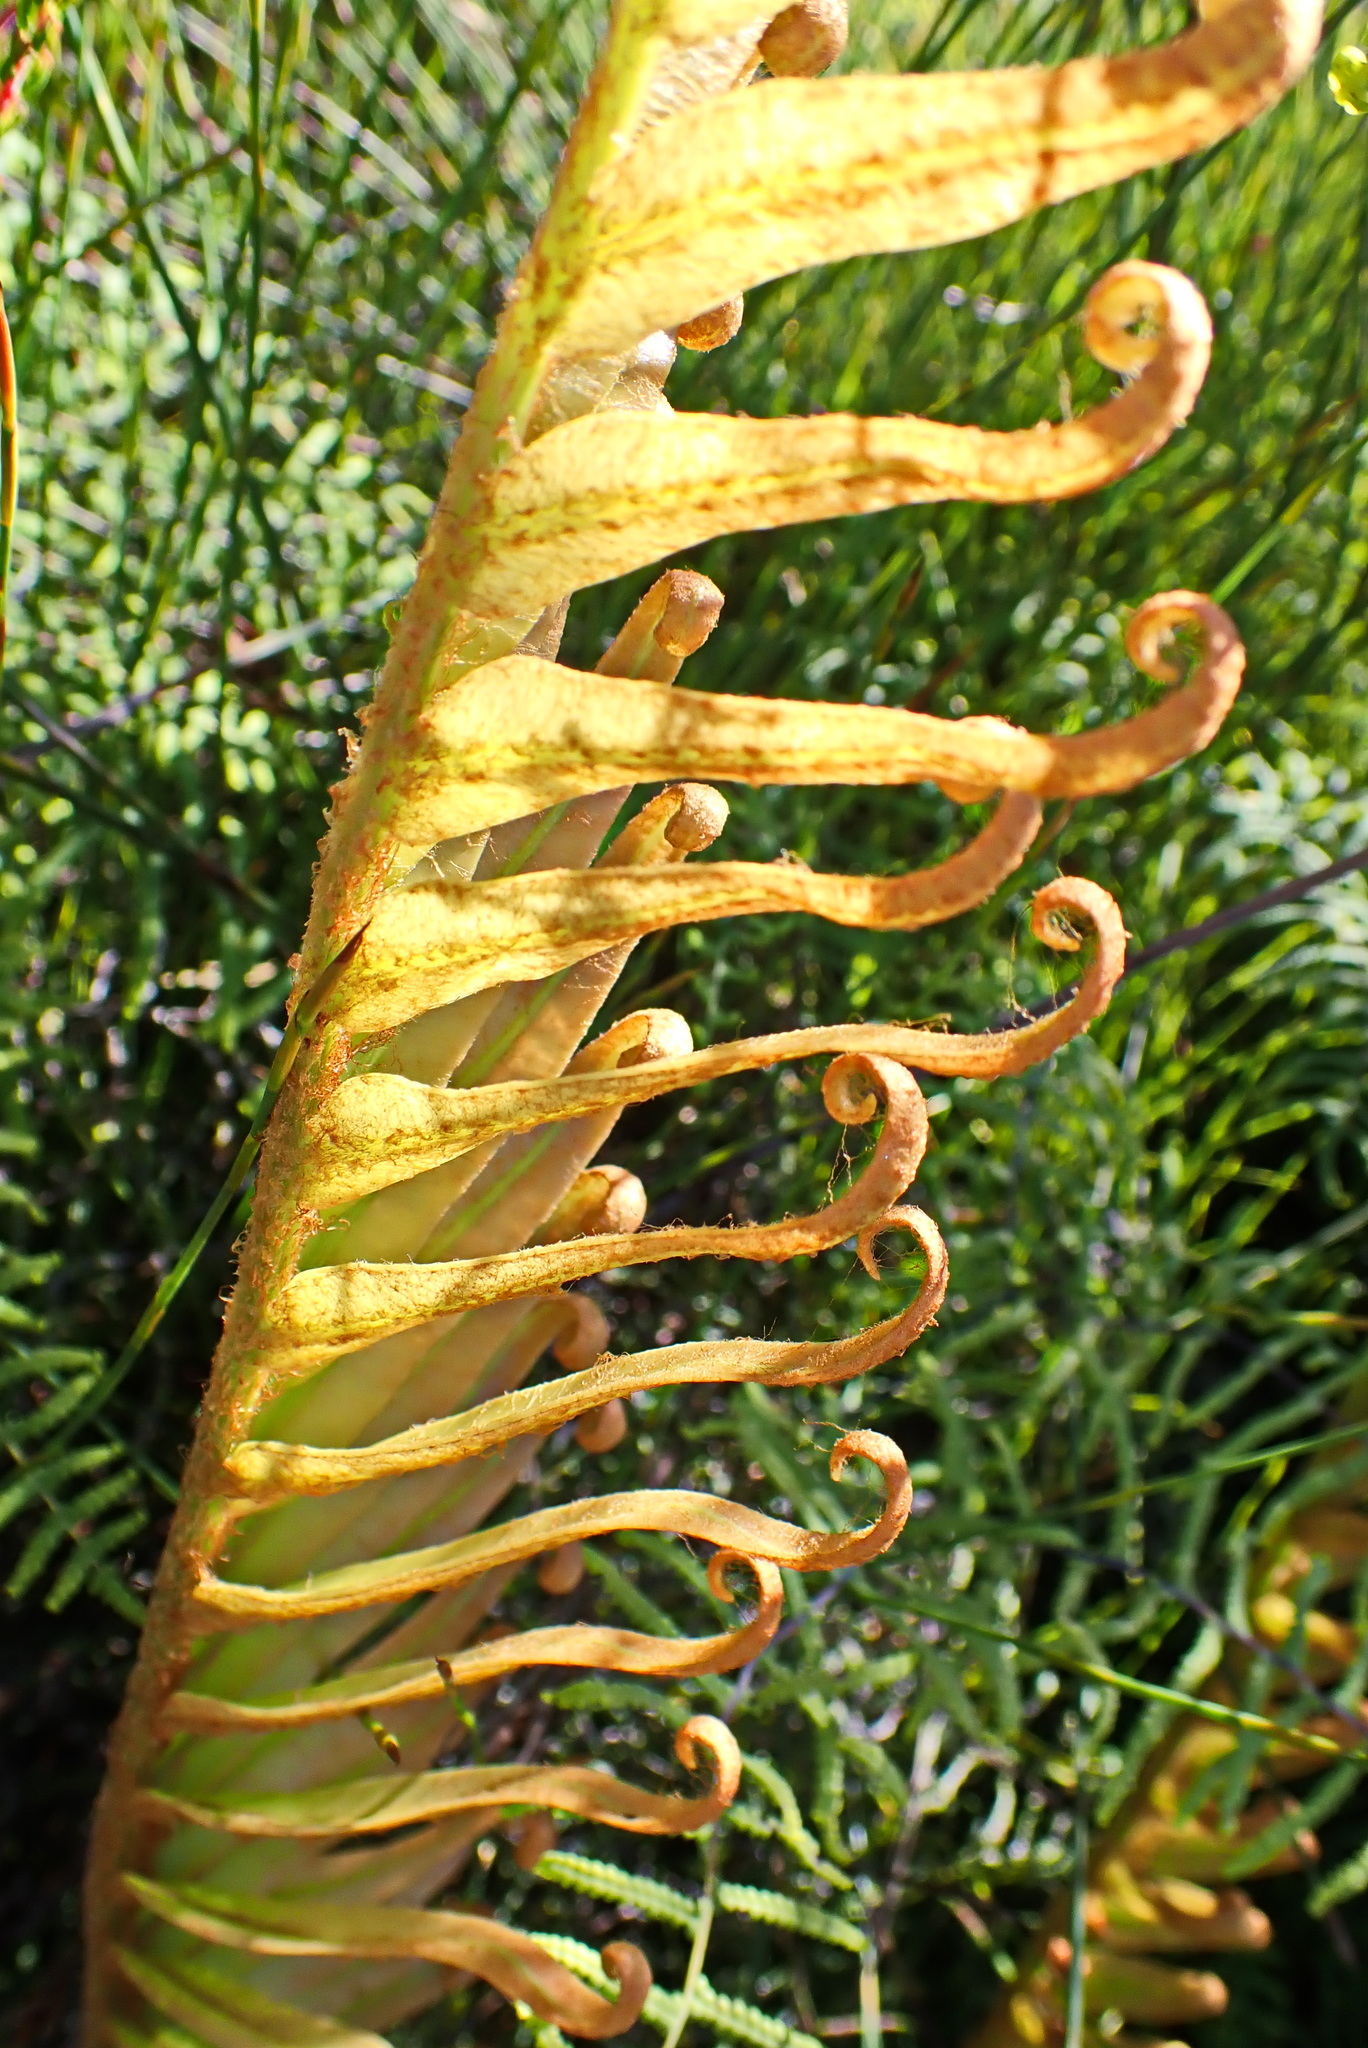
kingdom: Plantae
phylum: Tracheophyta
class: Polypodiopsida
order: Polypodiales
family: Blechnaceae
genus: Lomariocycas
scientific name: Lomariocycas tabularis
